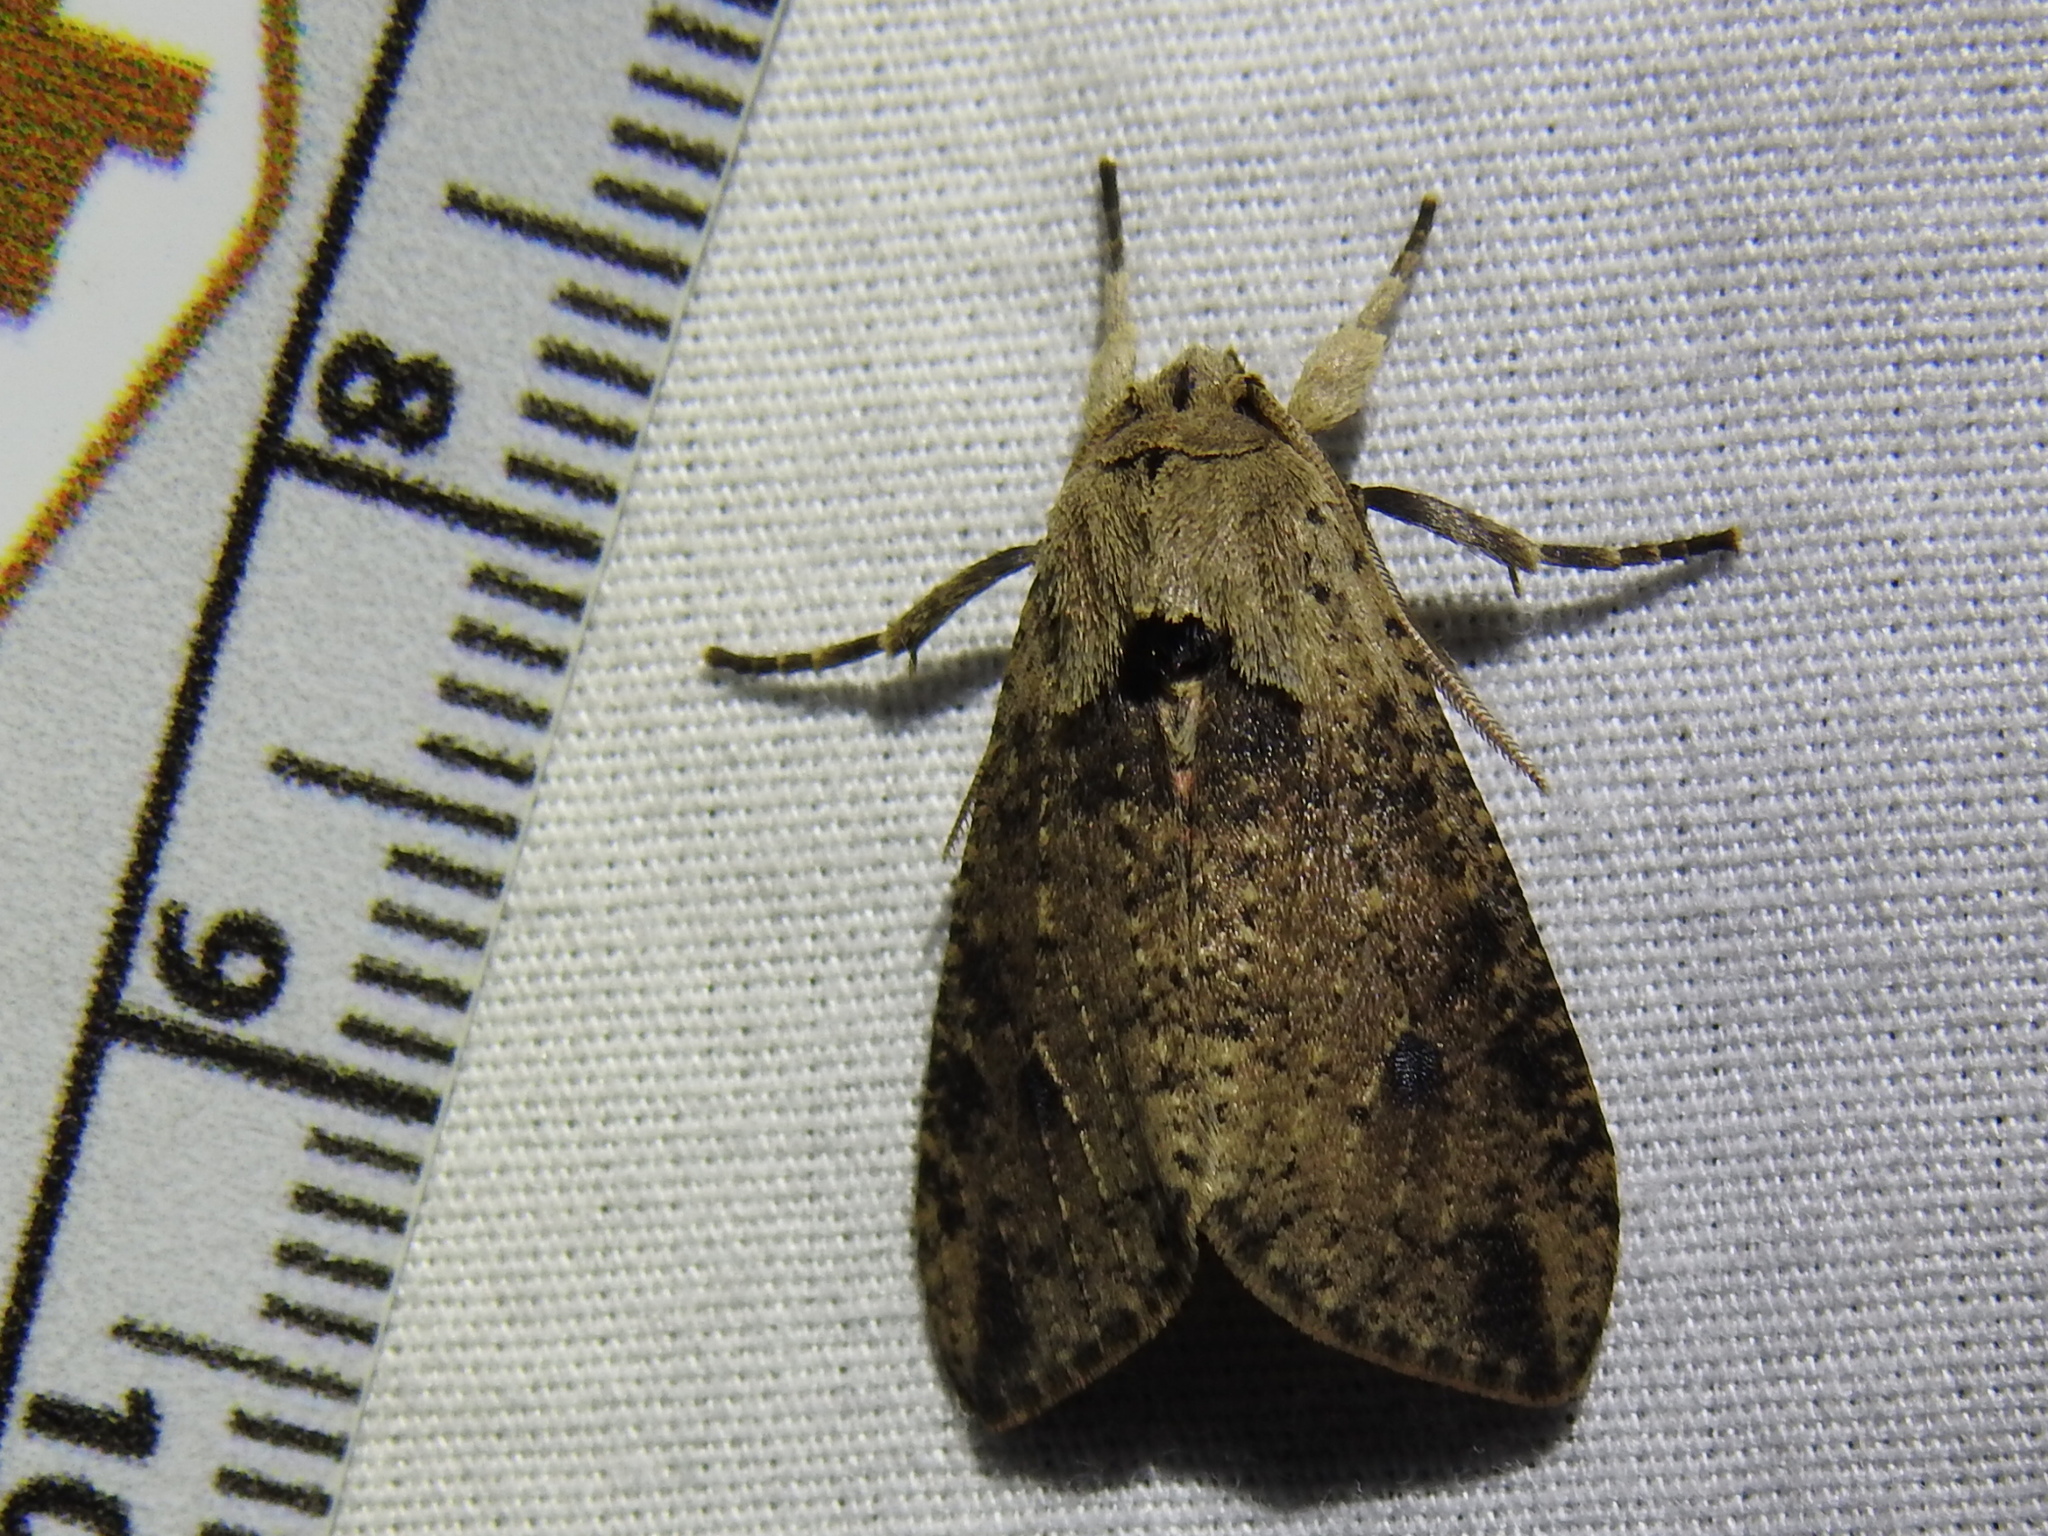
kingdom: Animalia
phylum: Arthropoda
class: Insecta
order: Lepidoptera
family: Erebidae
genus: Purius
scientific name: Purius superpulverea
